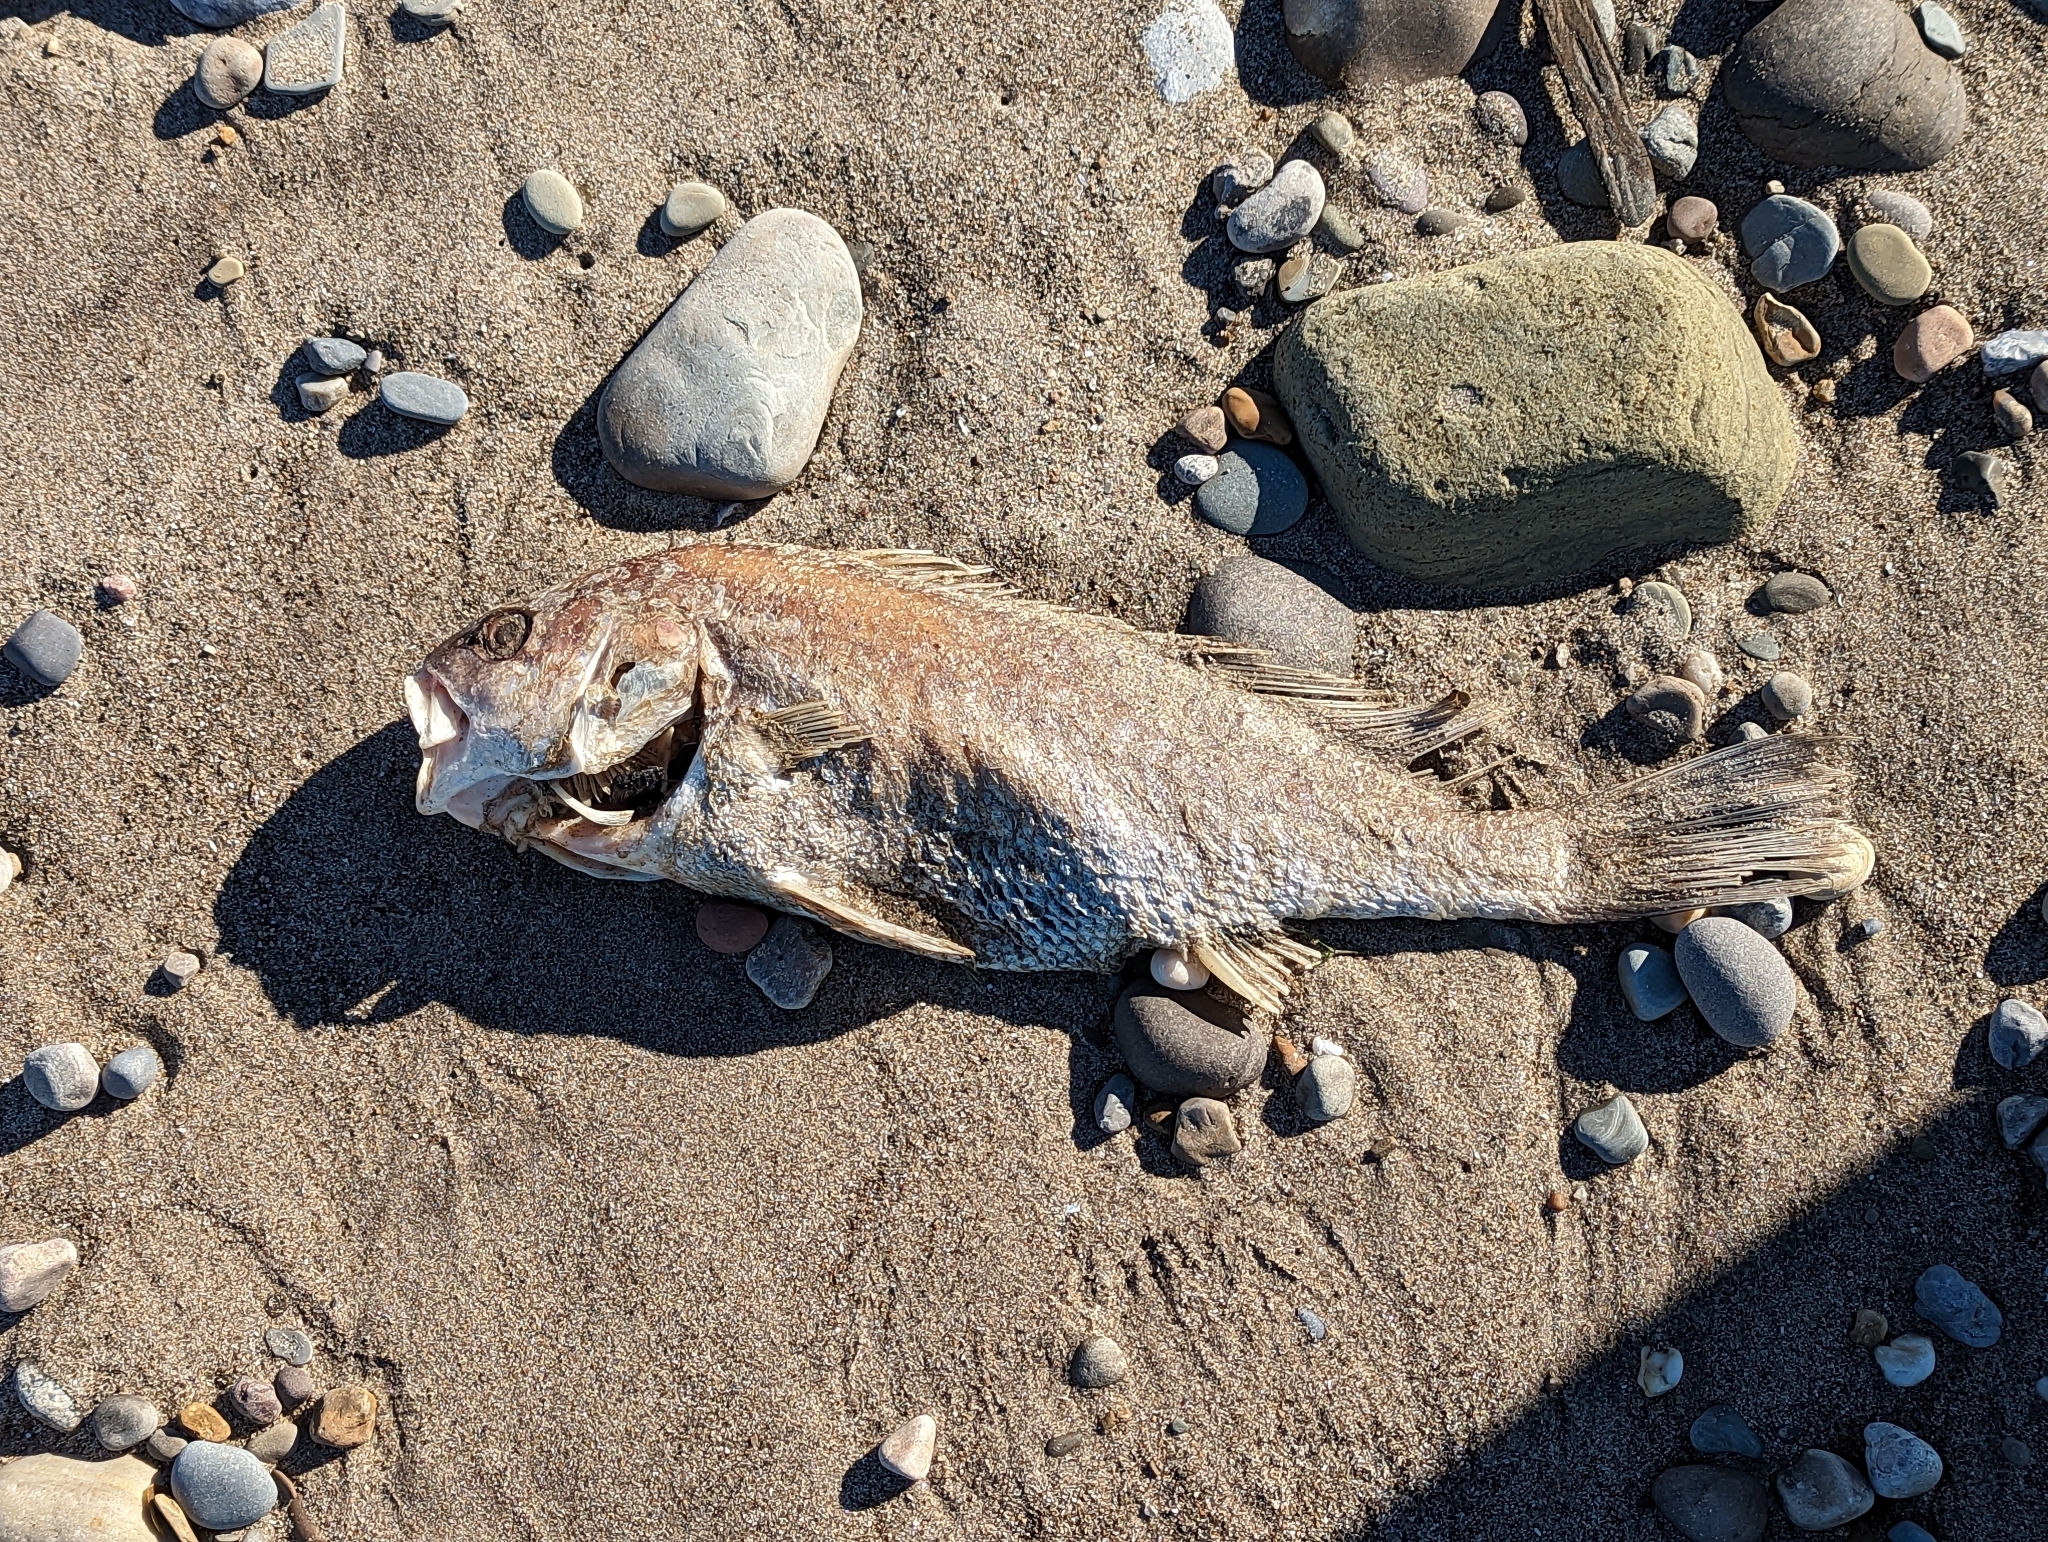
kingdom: Animalia
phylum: Chordata
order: Perciformes
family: Sciaenidae
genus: Aplodinotus
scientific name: Aplodinotus grunniens
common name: Freshwater drum
